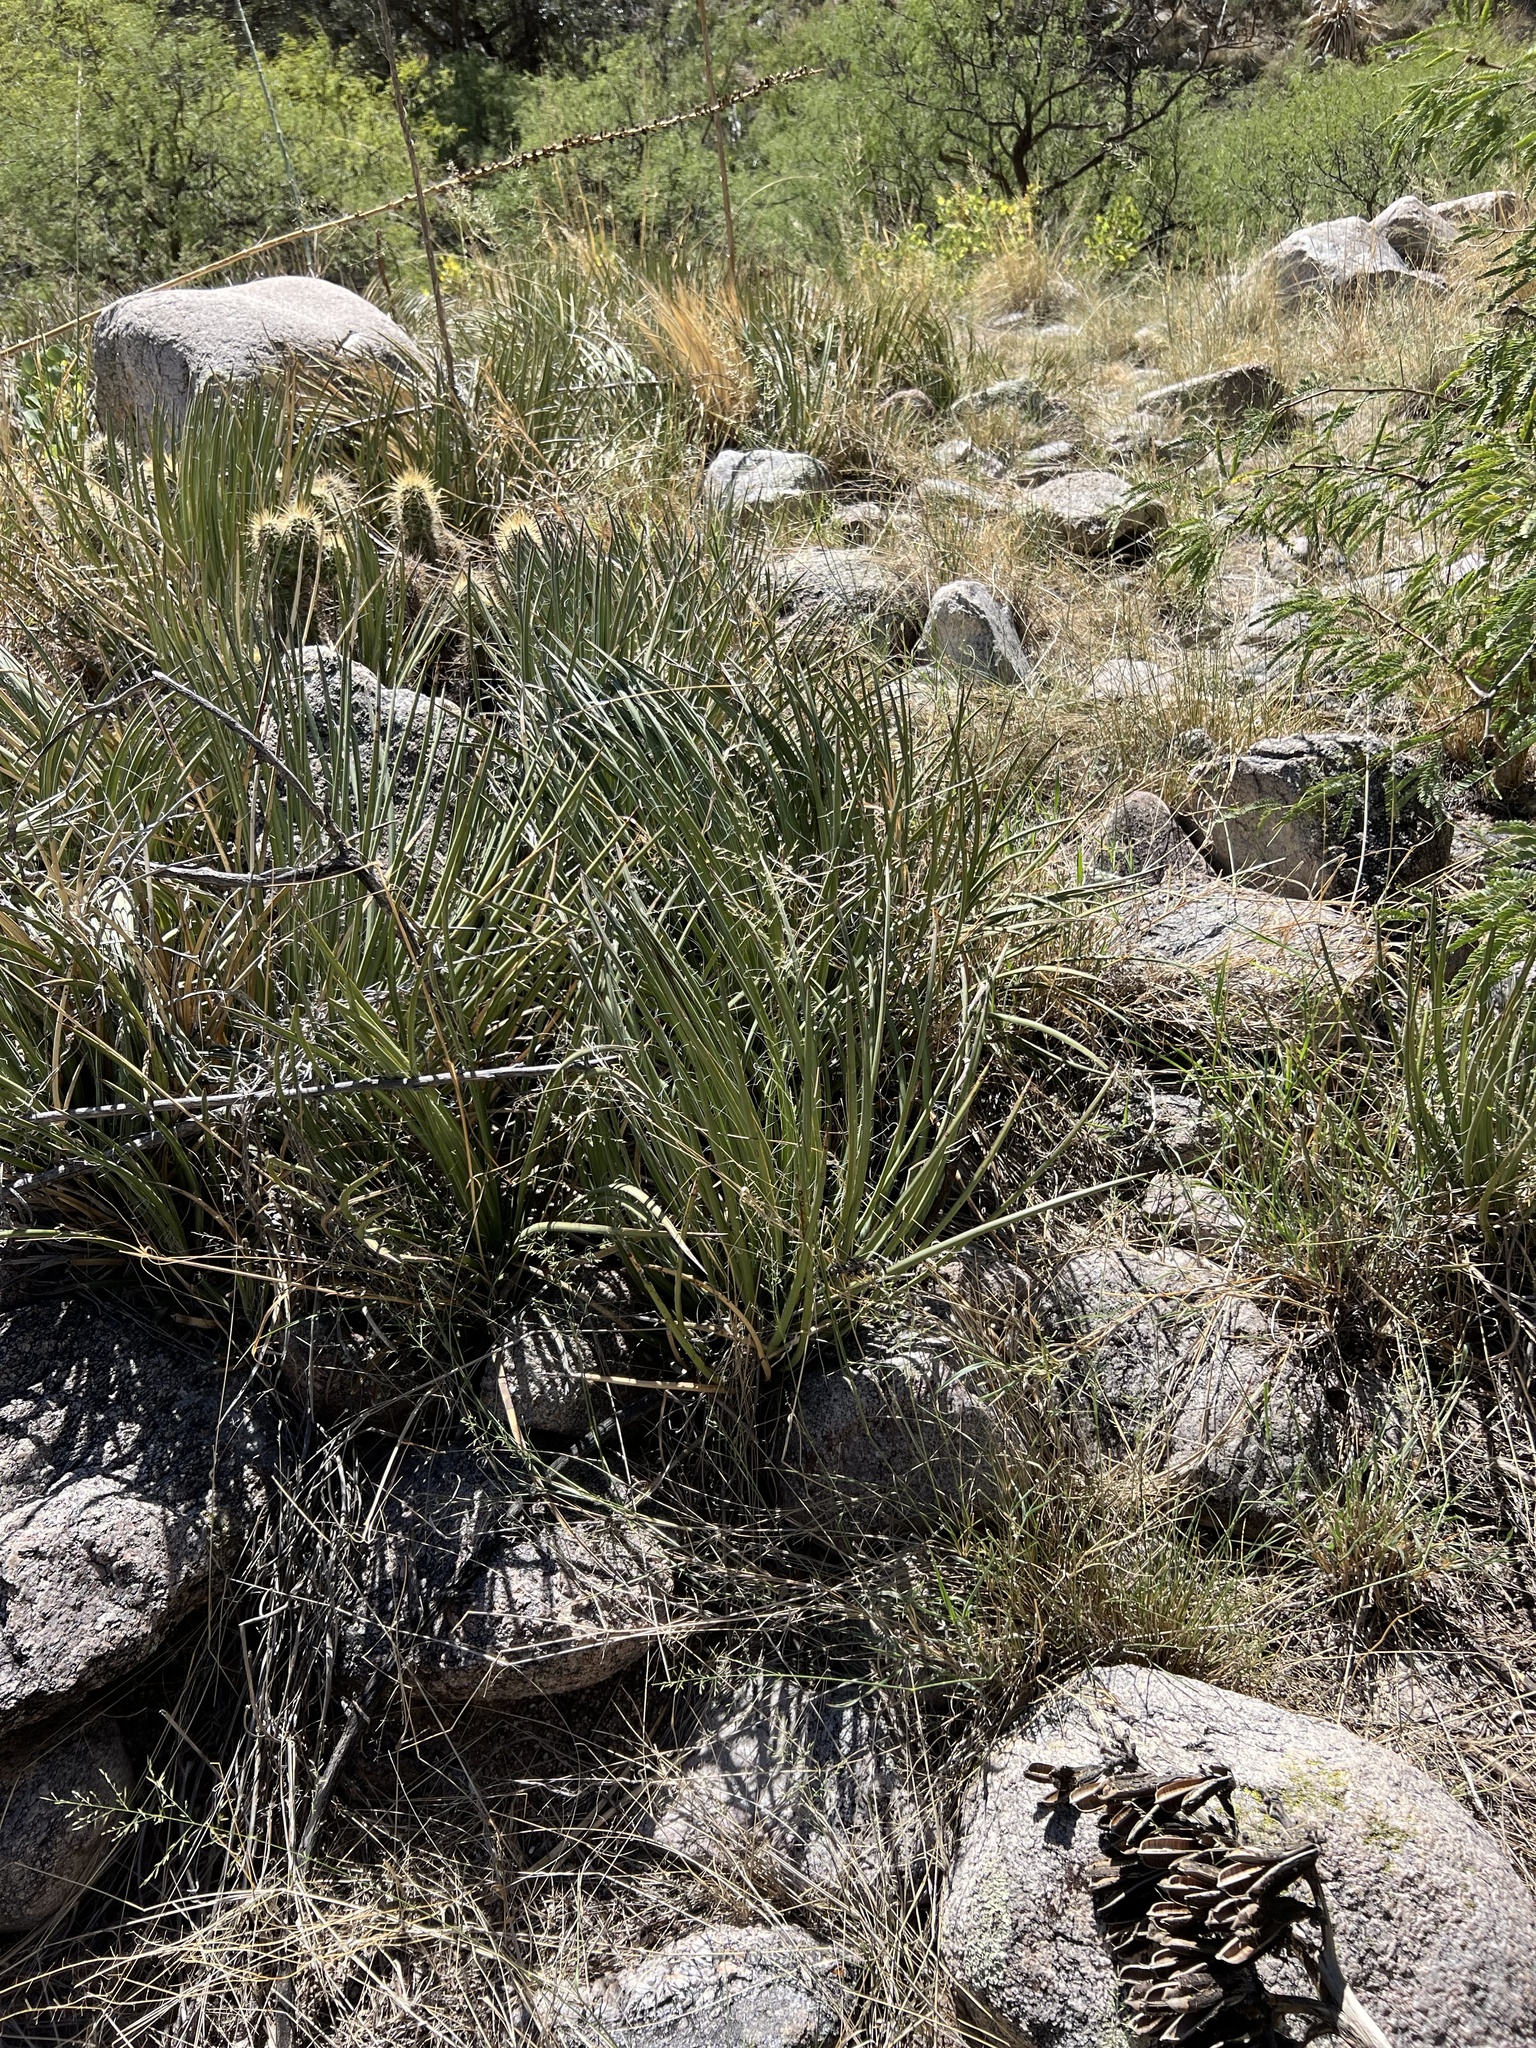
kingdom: Plantae
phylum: Tracheophyta
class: Liliopsida
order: Asparagales
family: Asparagaceae
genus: Agave
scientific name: Agave schottii
